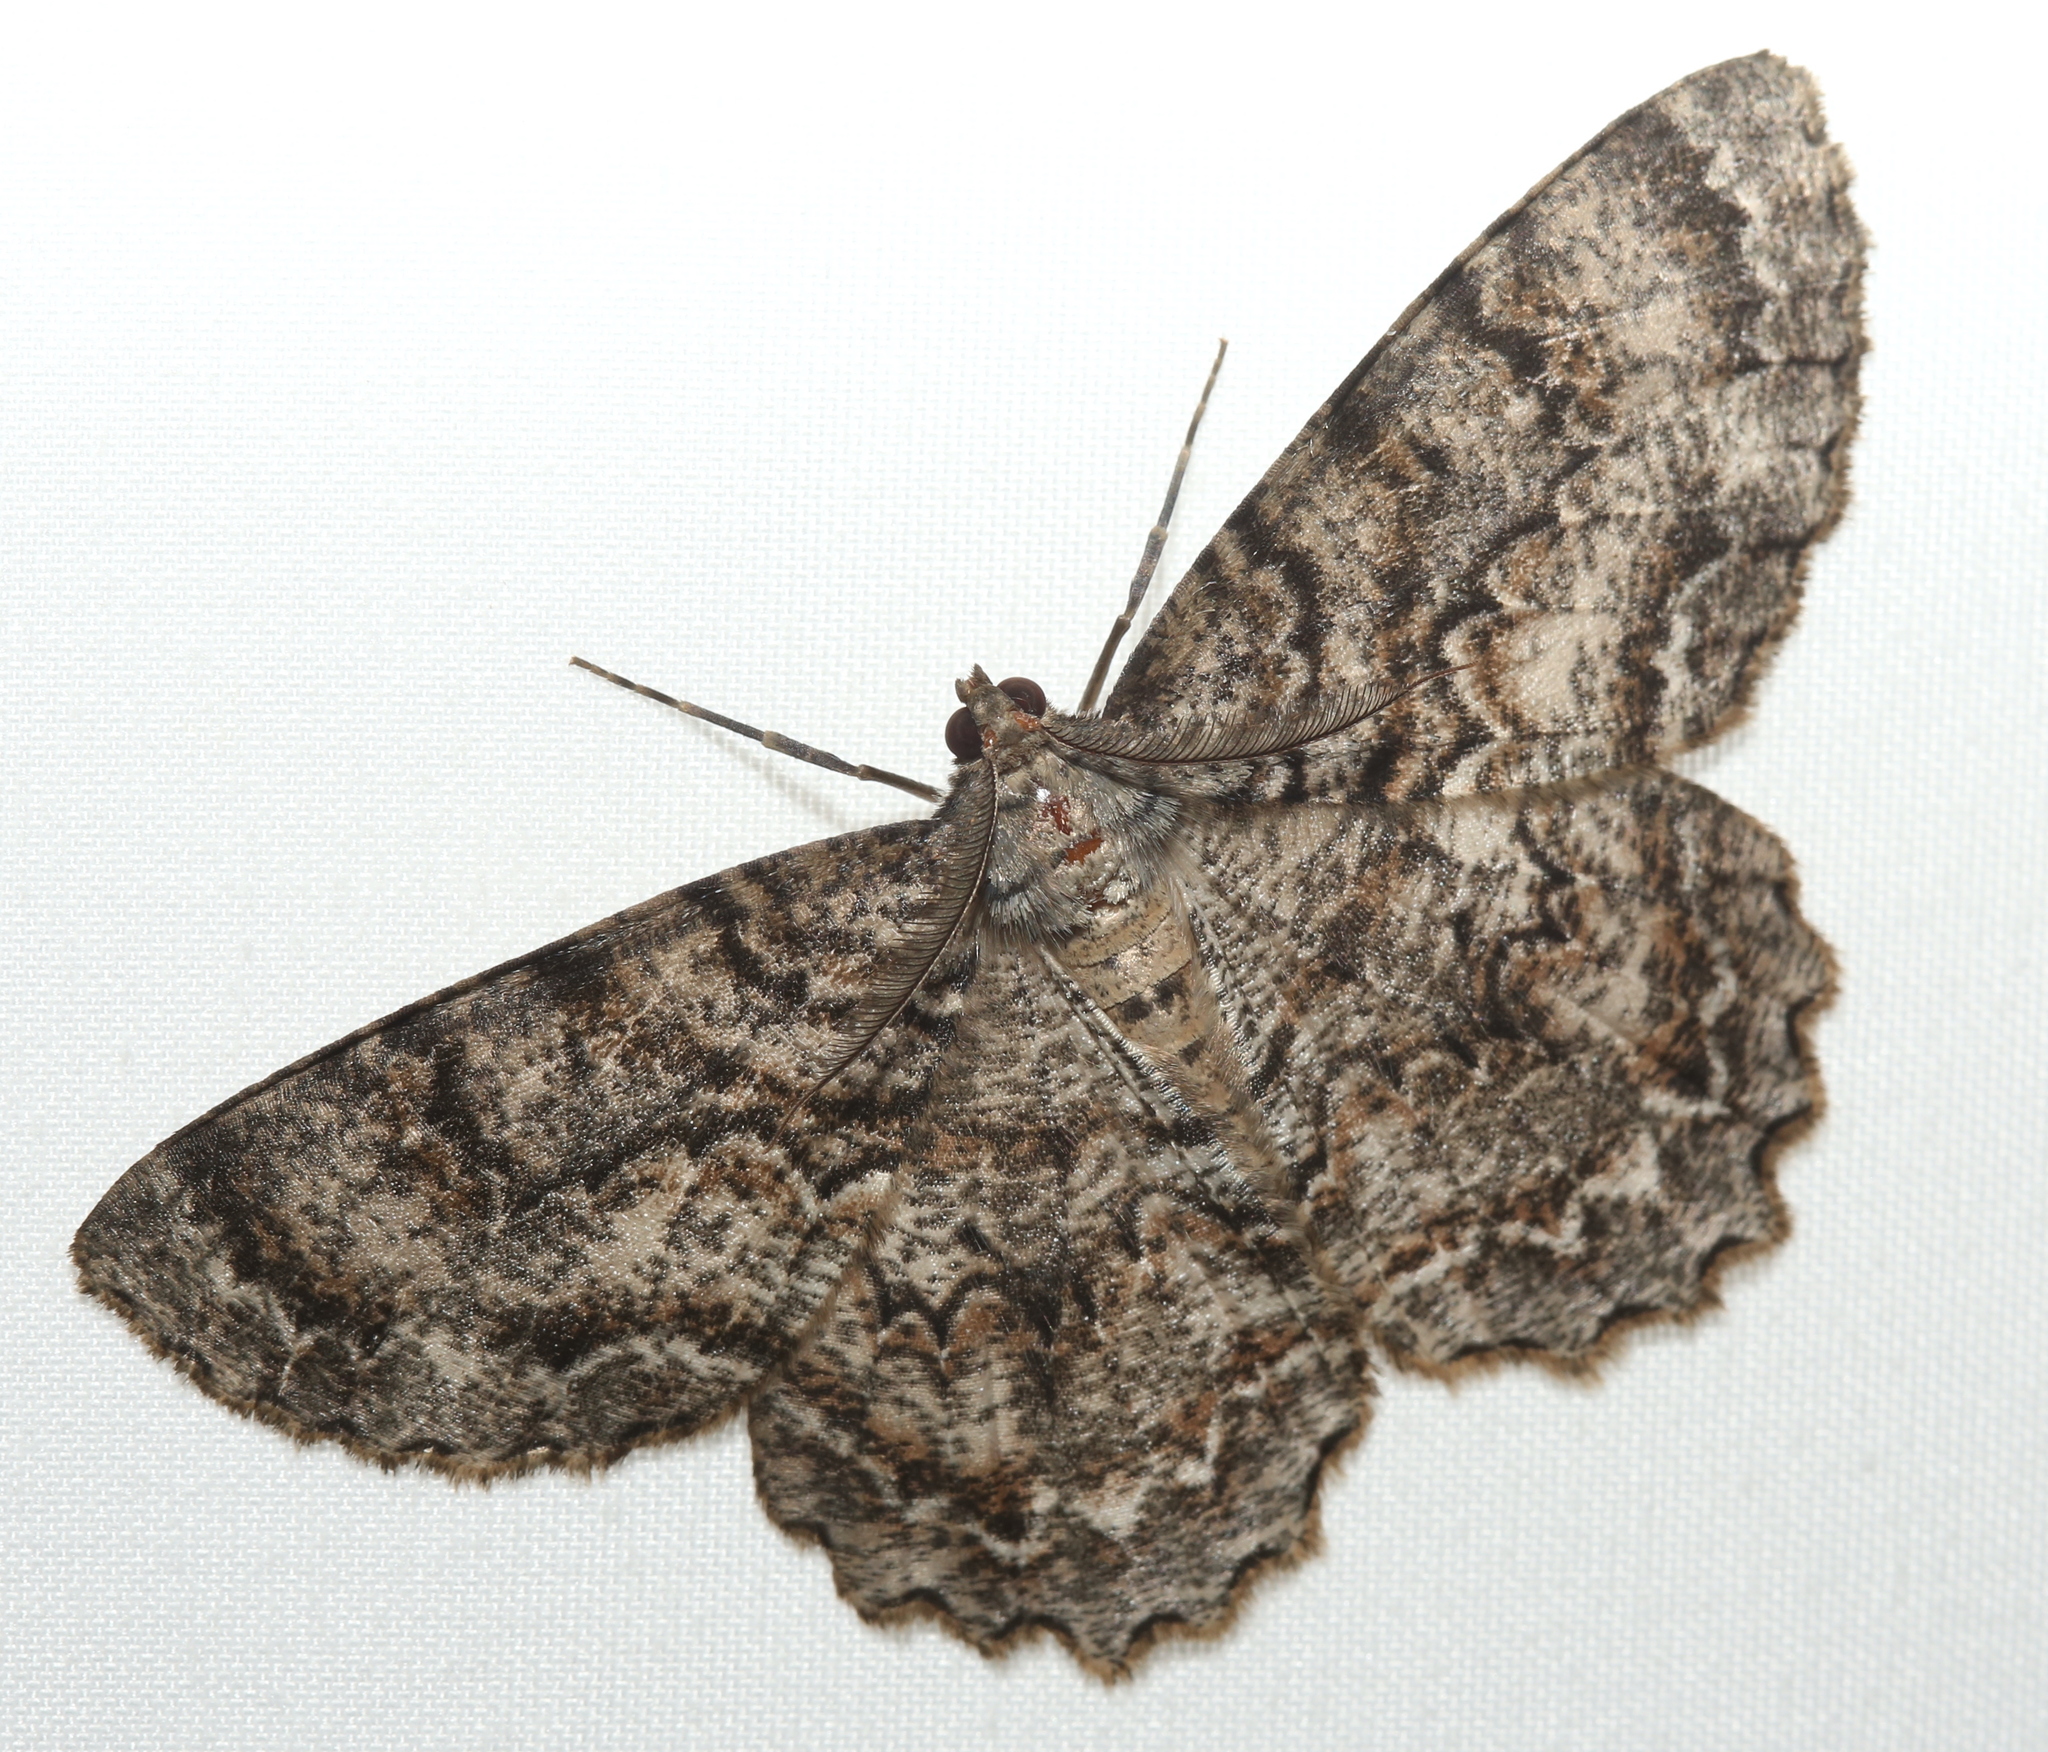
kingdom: Animalia
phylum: Arthropoda
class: Insecta
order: Lepidoptera
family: Geometridae
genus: Epimecis
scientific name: Epimecis hortaria
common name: Tulip-tree beauty
